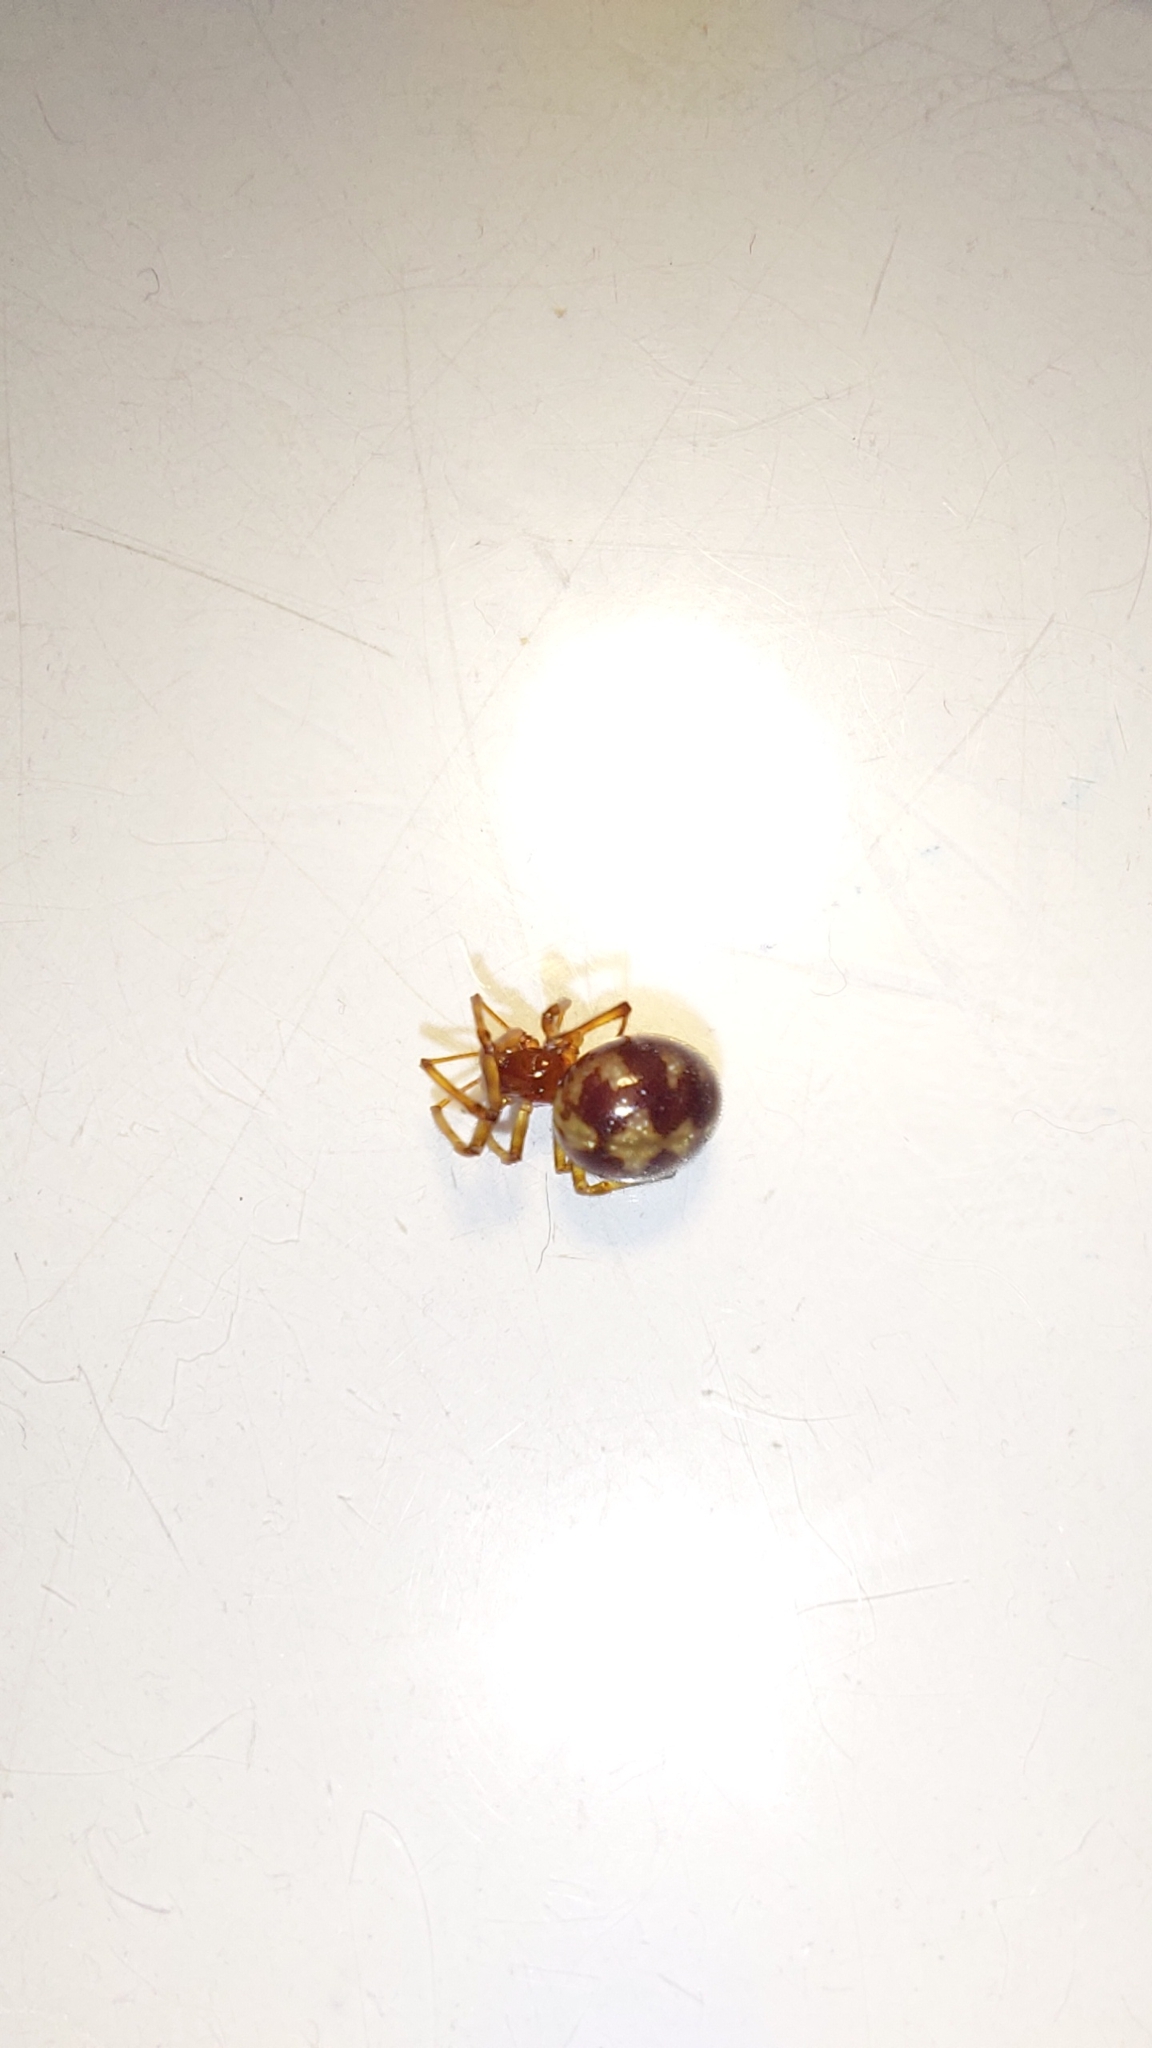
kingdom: Animalia
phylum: Arthropoda
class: Arachnida
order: Araneae
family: Theridiidae
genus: Steatoda
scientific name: Steatoda triangulosa
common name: Triangulate bud spider
